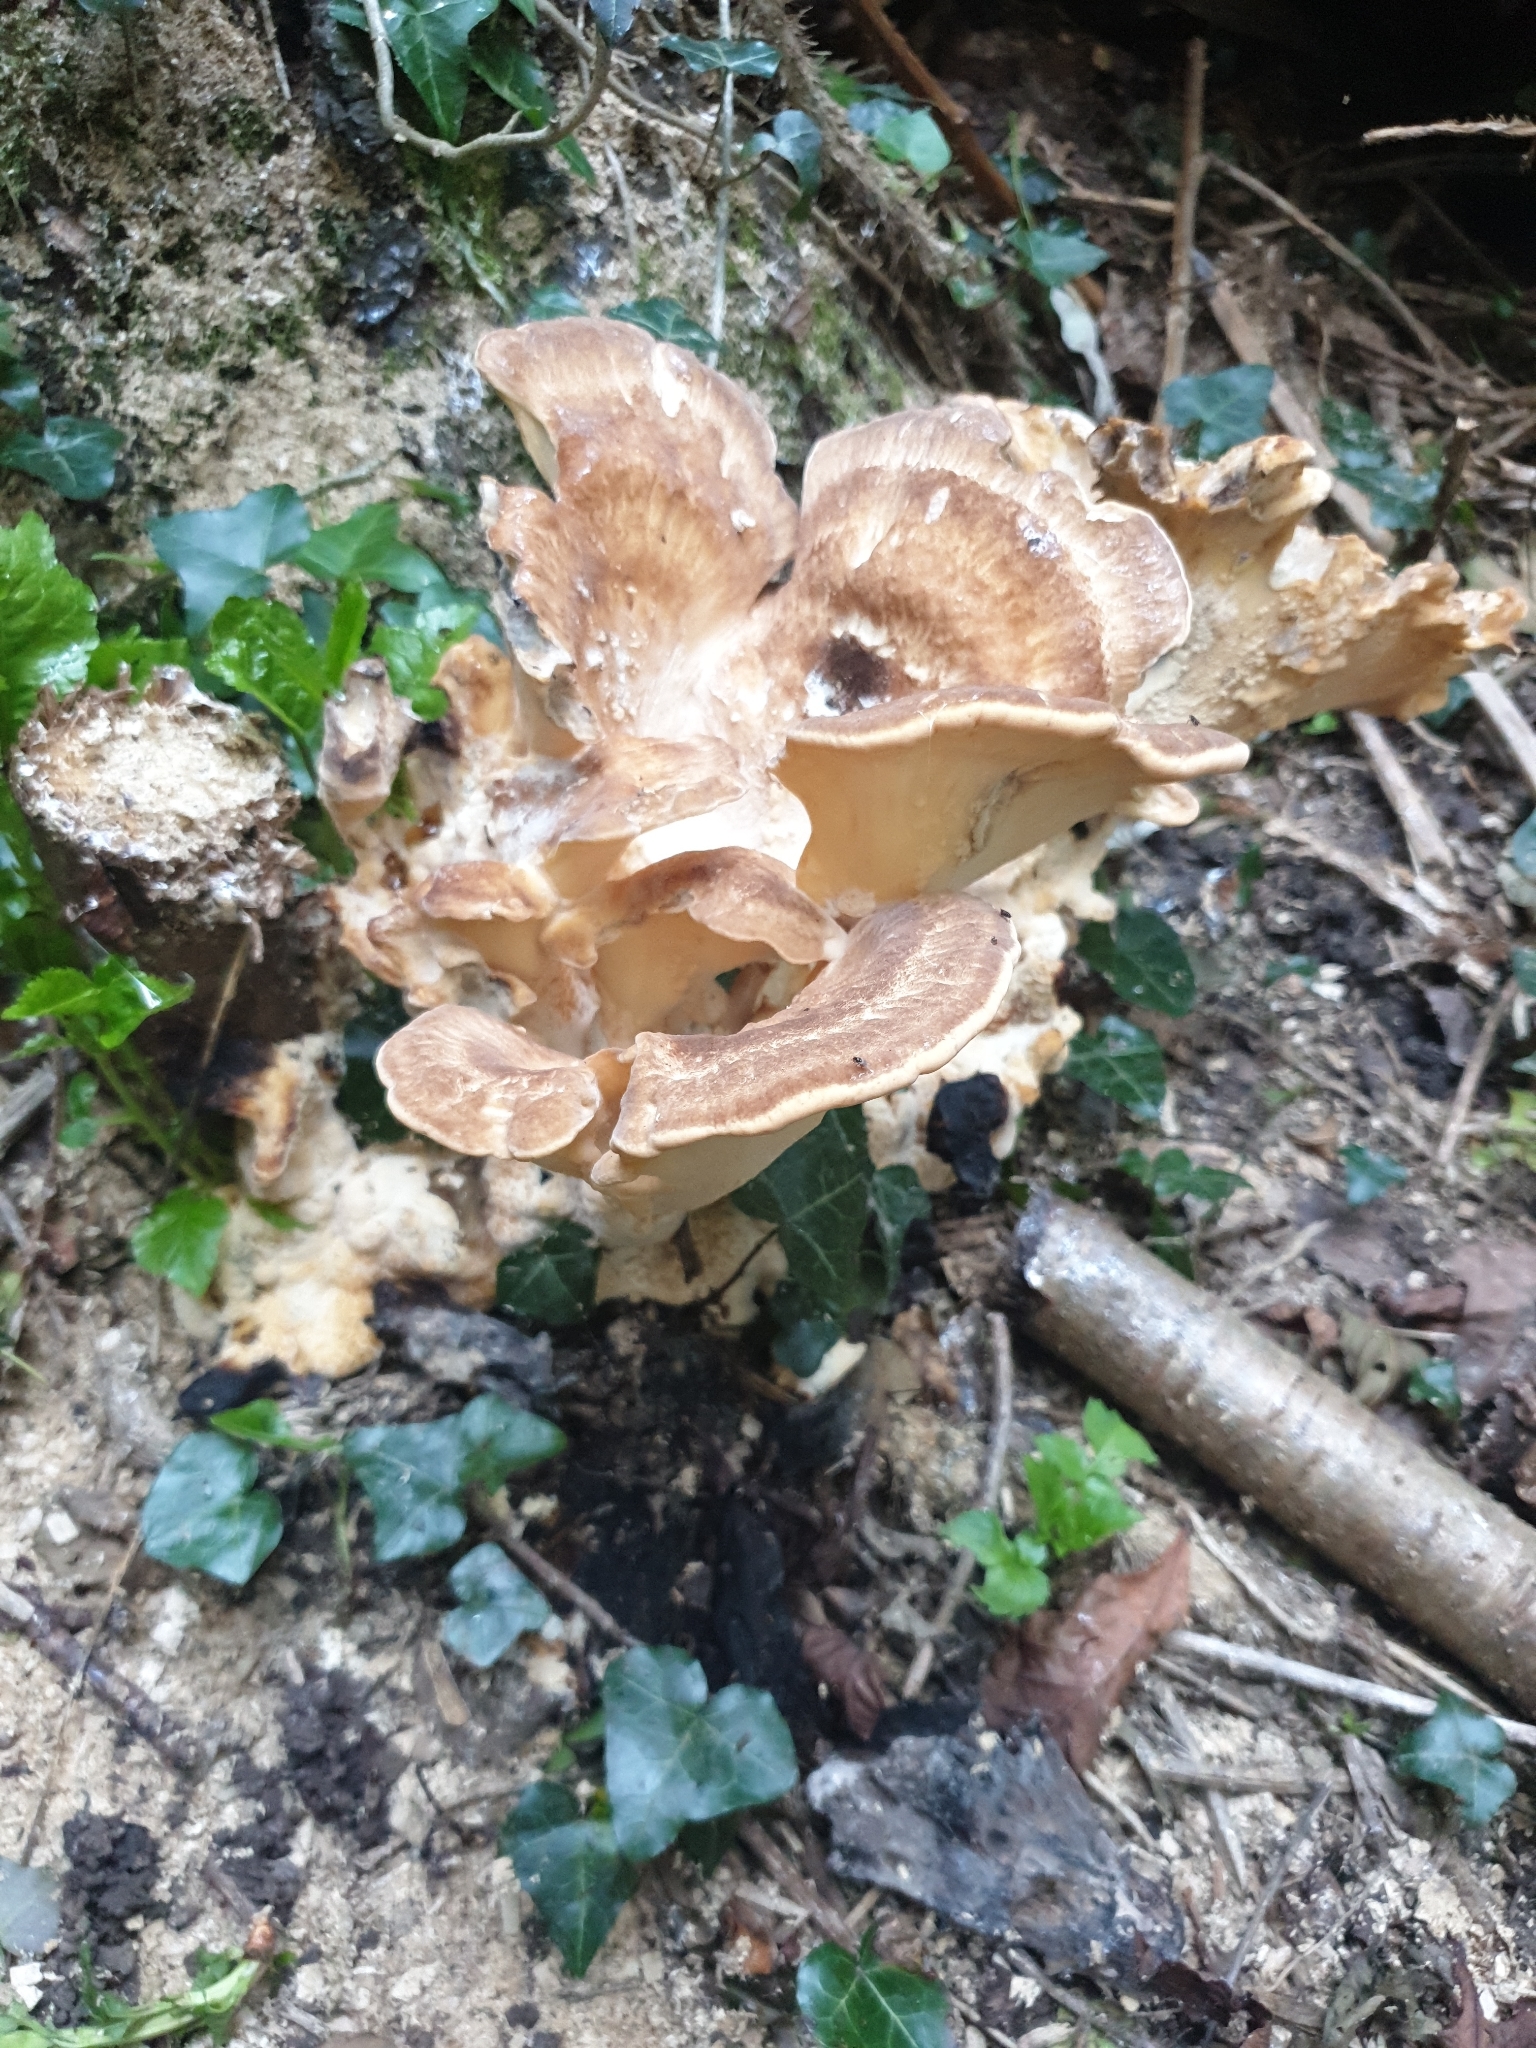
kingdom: Fungi
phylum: Basidiomycota
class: Agaricomycetes
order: Polyporales
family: Meripilaceae
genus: Meripilus
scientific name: Meripilus giganteus
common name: Giant polypore
